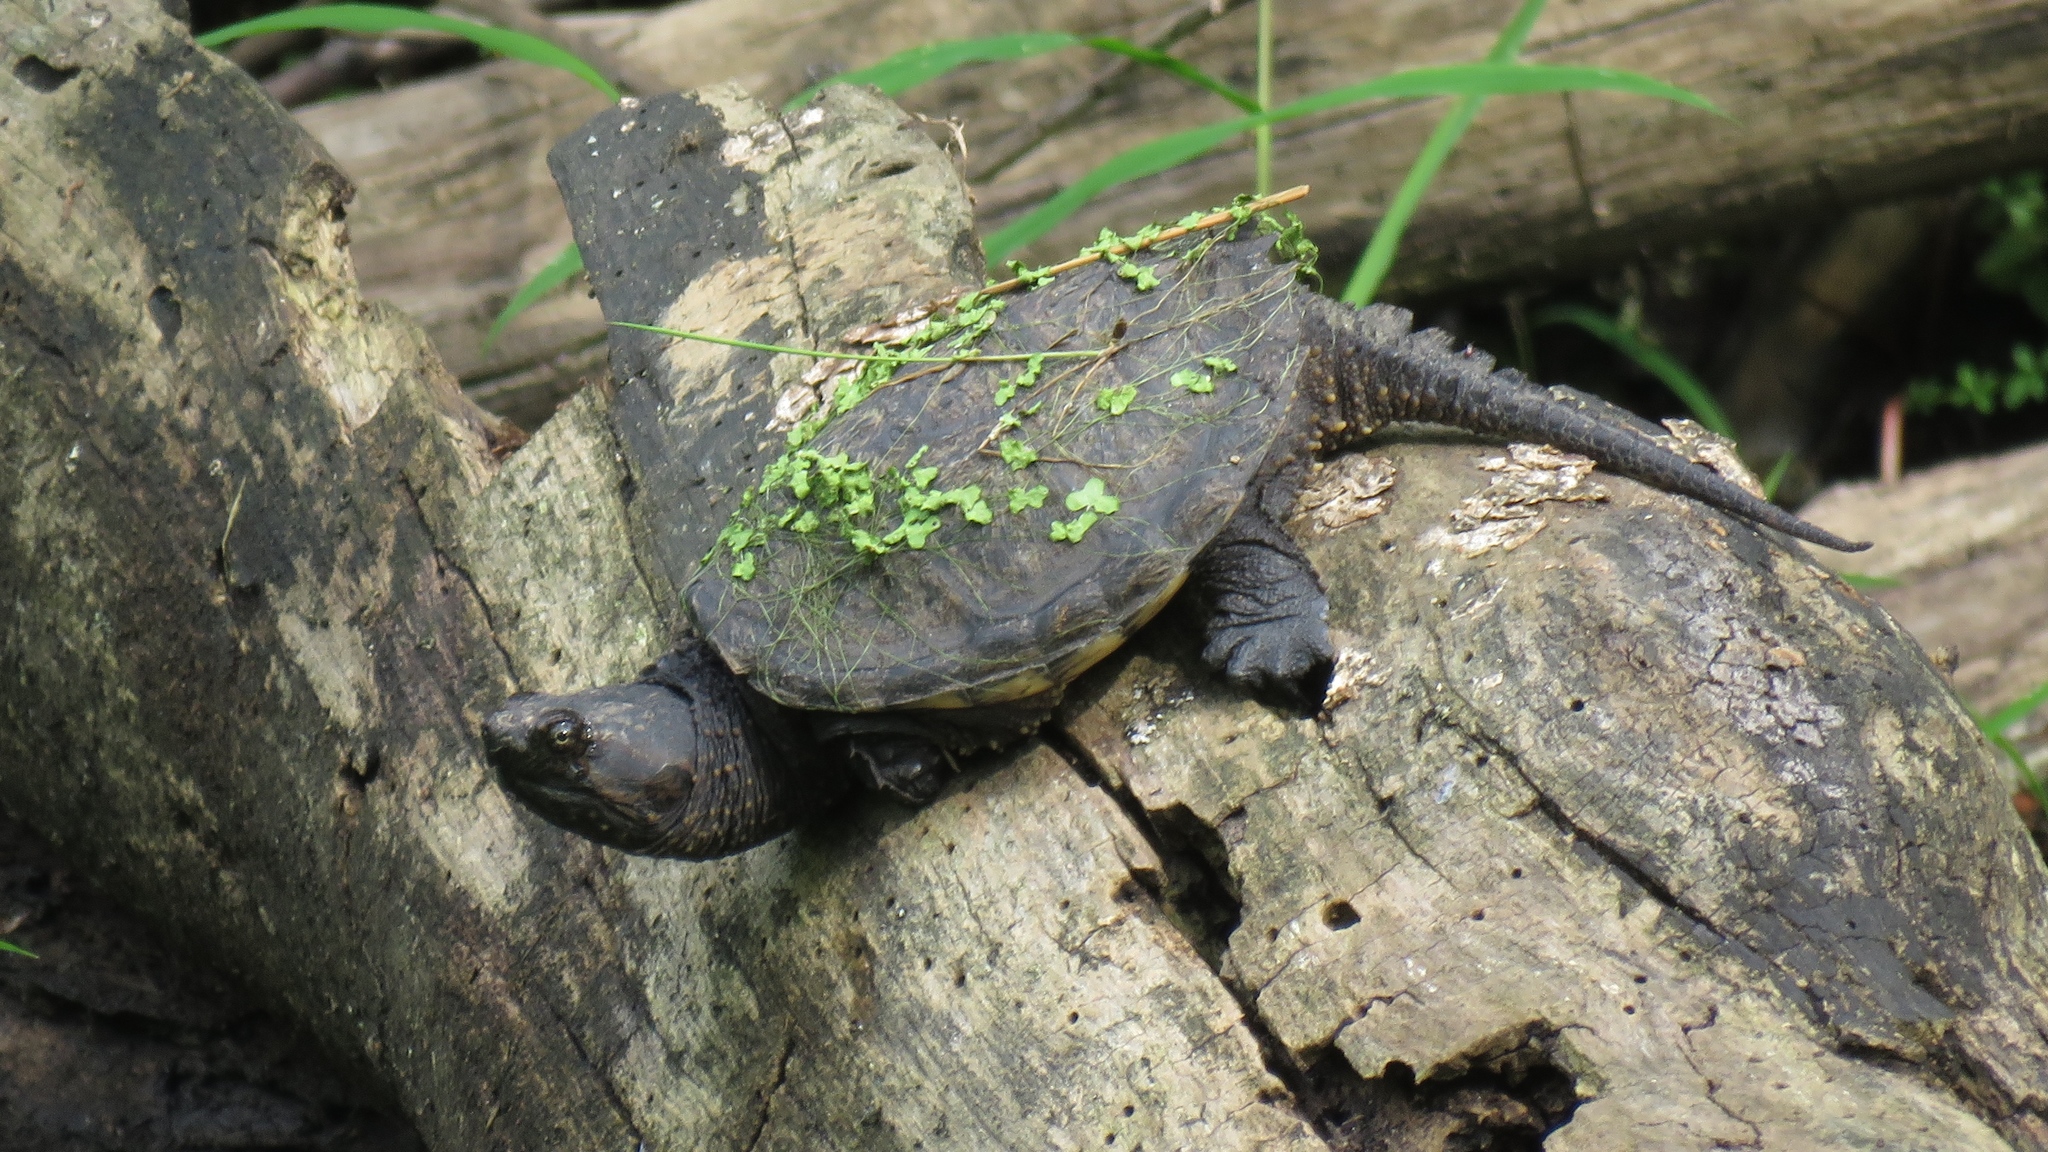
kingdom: Animalia
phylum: Chordata
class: Testudines
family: Chelydridae
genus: Chelydra
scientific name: Chelydra serpentina
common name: Common snapping turtle
